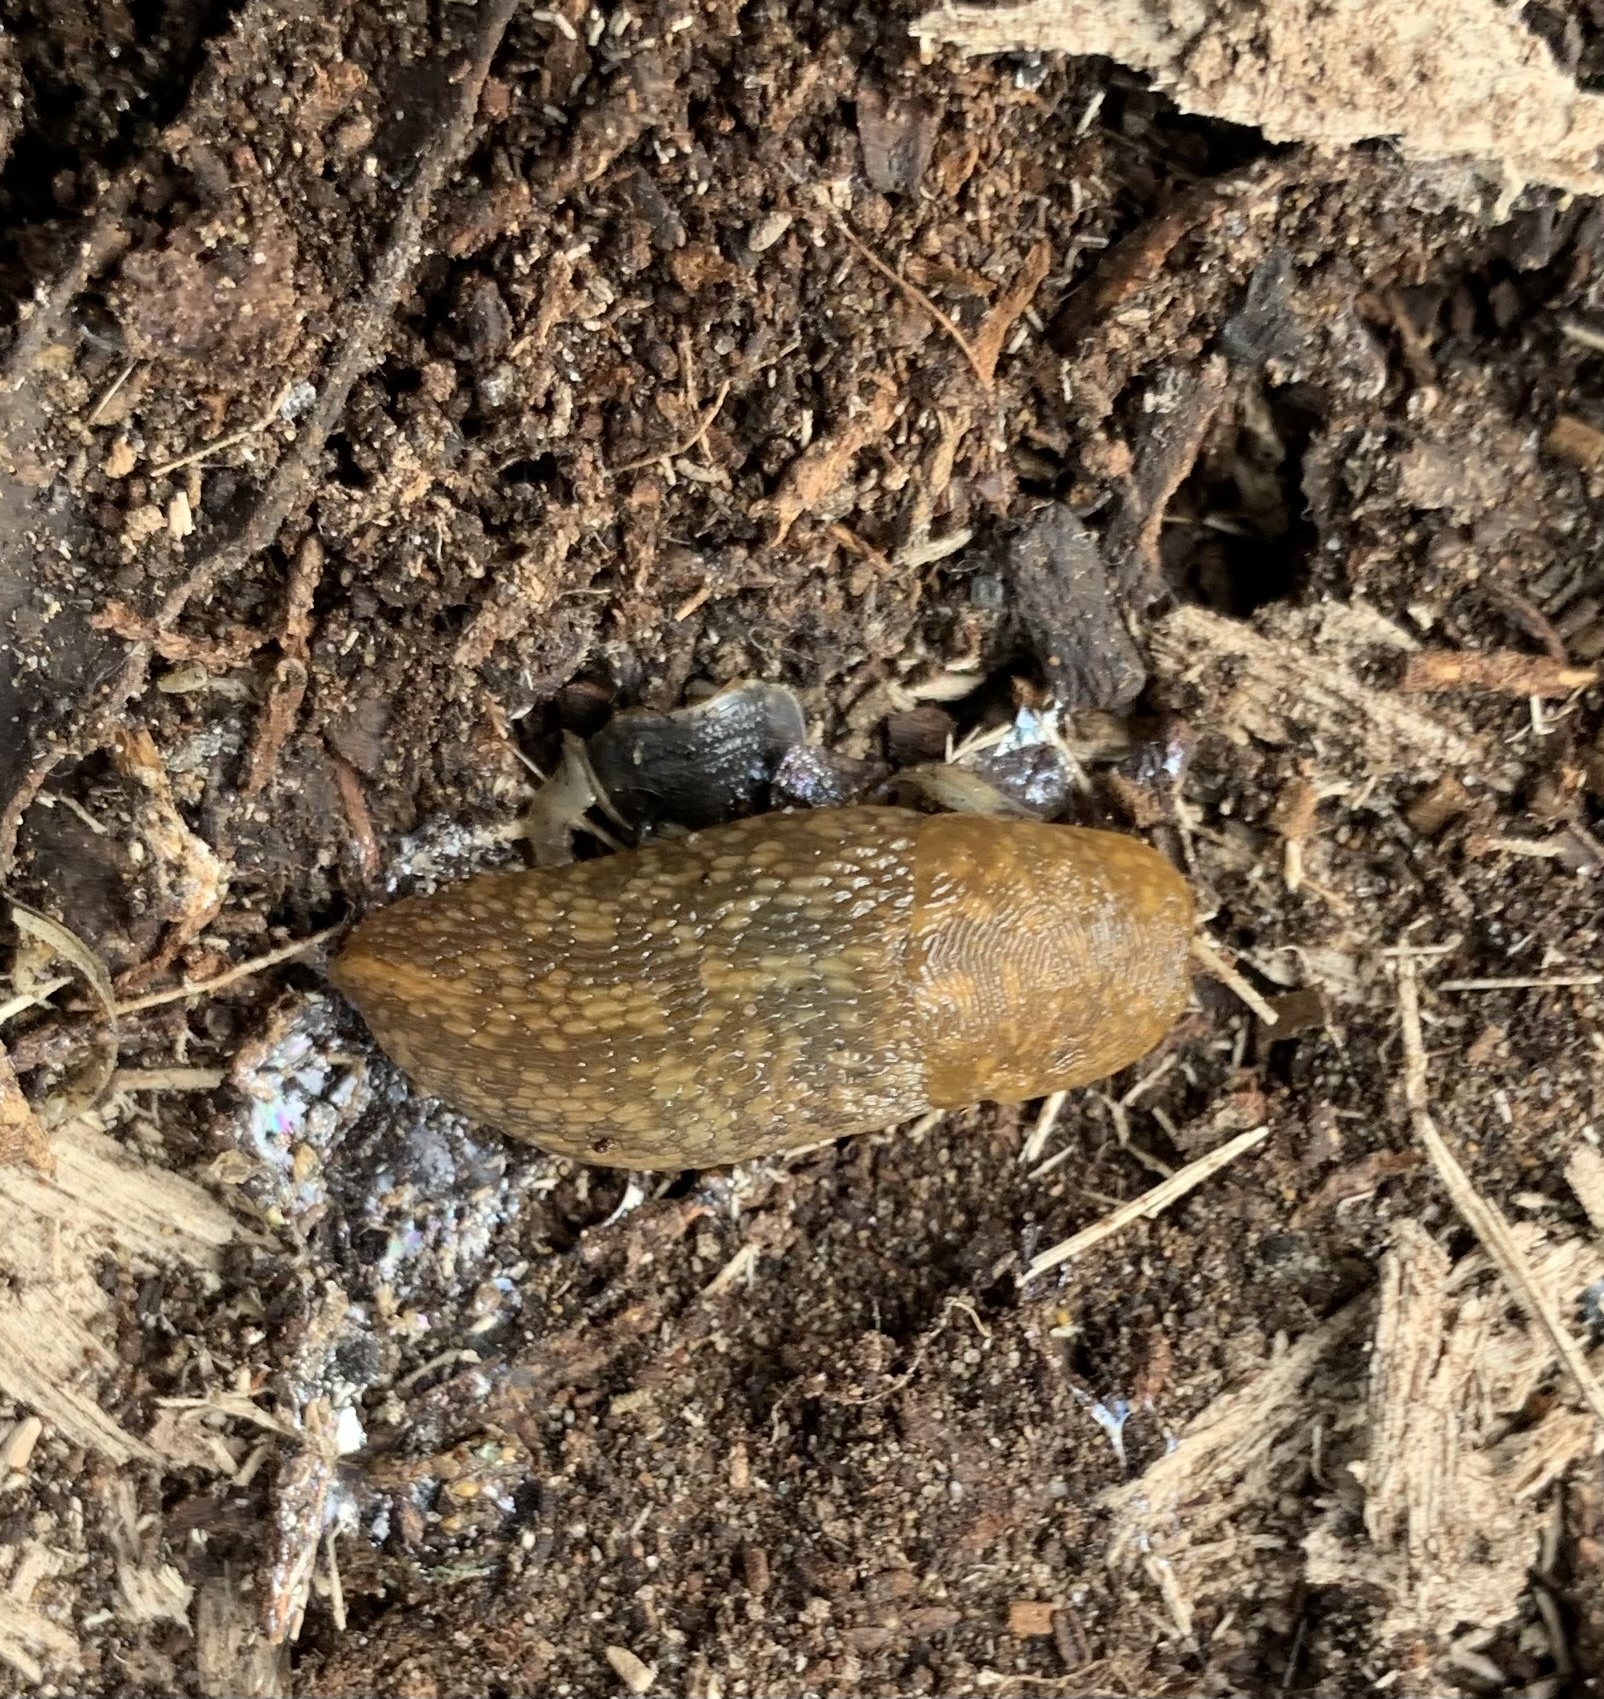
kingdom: Animalia
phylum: Mollusca
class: Gastropoda
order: Stylommatophora
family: Limacidae
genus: Limacus
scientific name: Limacus flavus
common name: Yellow gardenslug
